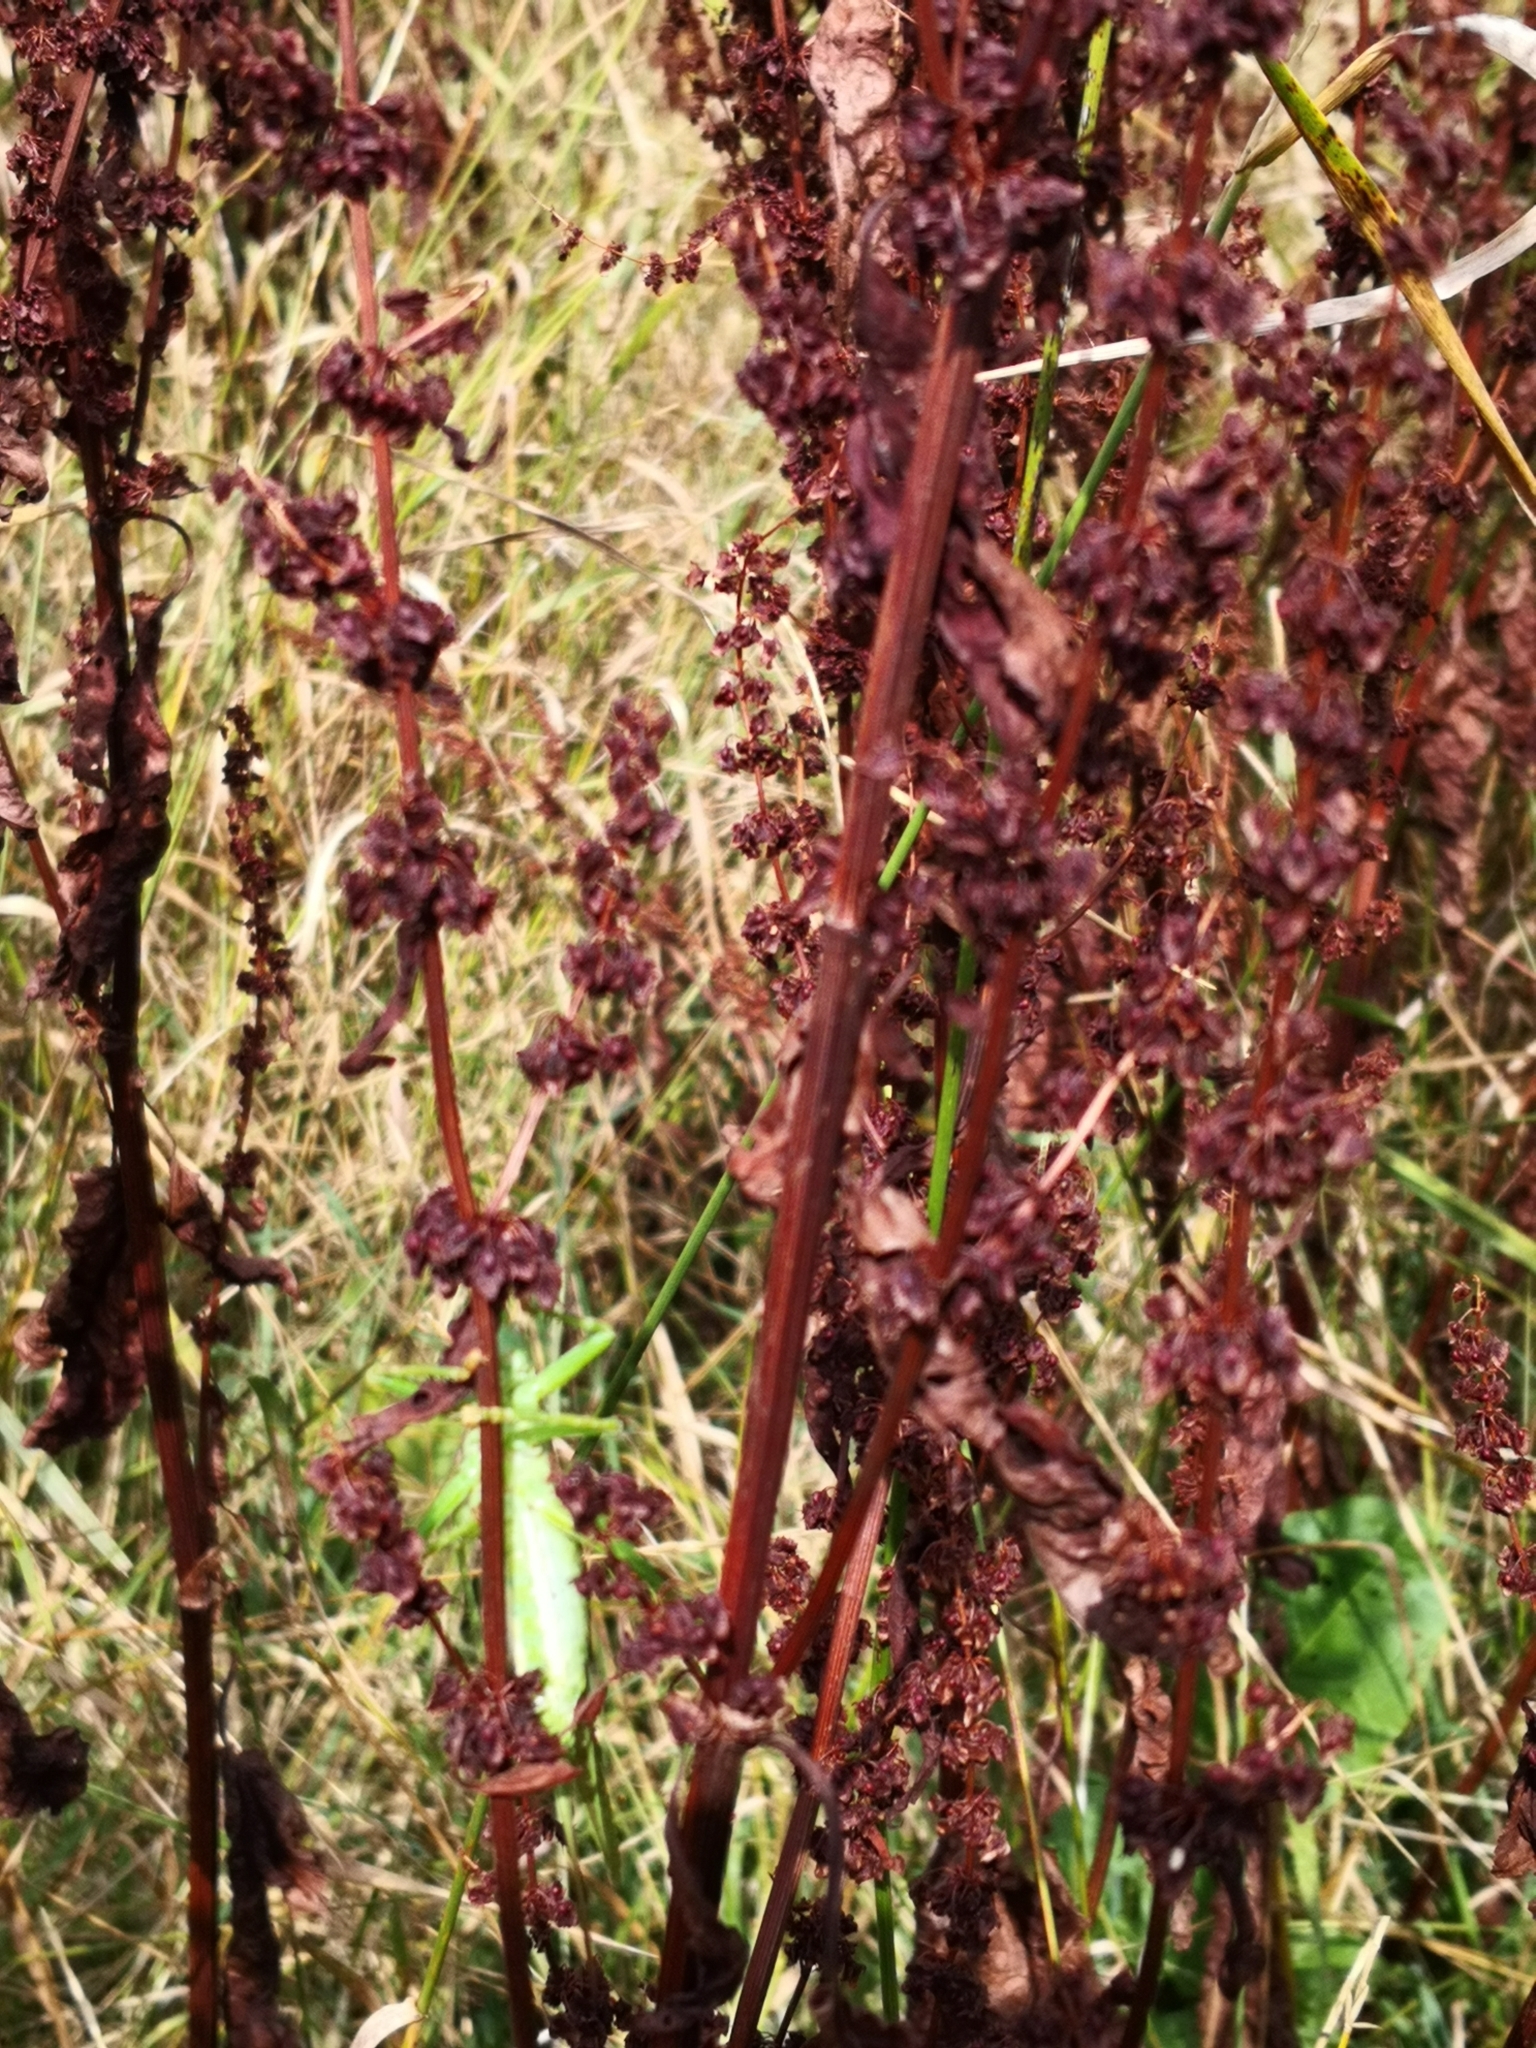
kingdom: Animalia
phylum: Arthropoda
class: Insecta
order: Orthoptera
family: Tettigoniidae
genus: Tettigonia
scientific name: Tettigonia viridissima
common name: Great green bush-cricket
